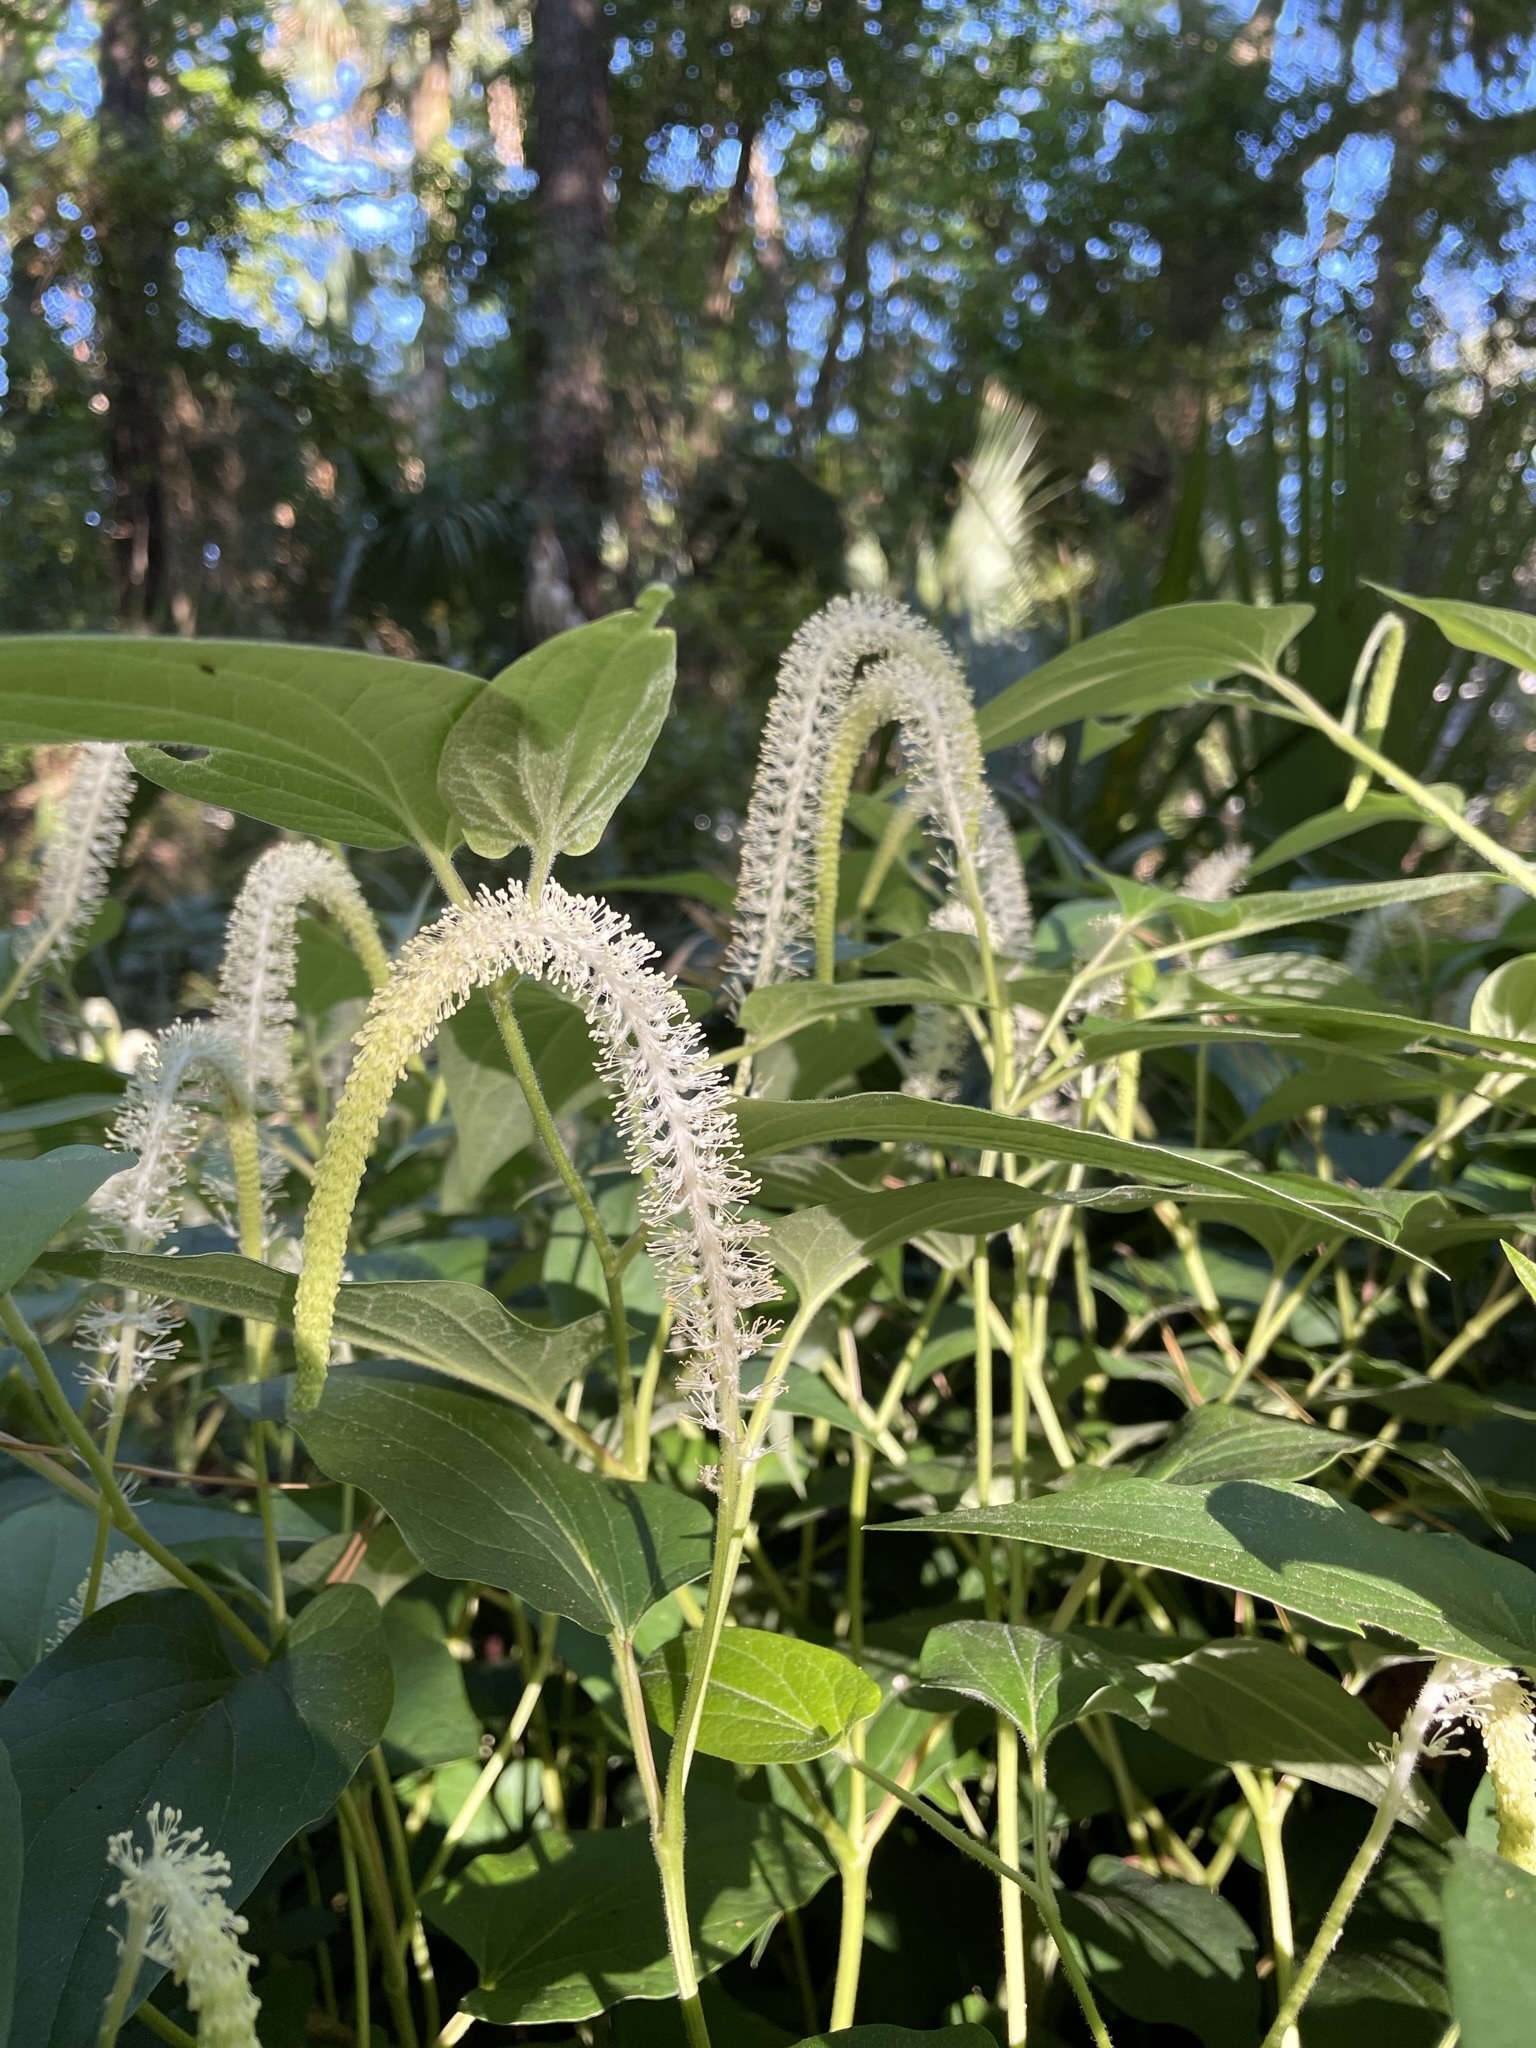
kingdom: Plantae
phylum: Tracheophyta
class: Magnoliopsida
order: Piperales
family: Saururaceae
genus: Saururus
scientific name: Saururus cernuus
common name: Lizard's-tail
